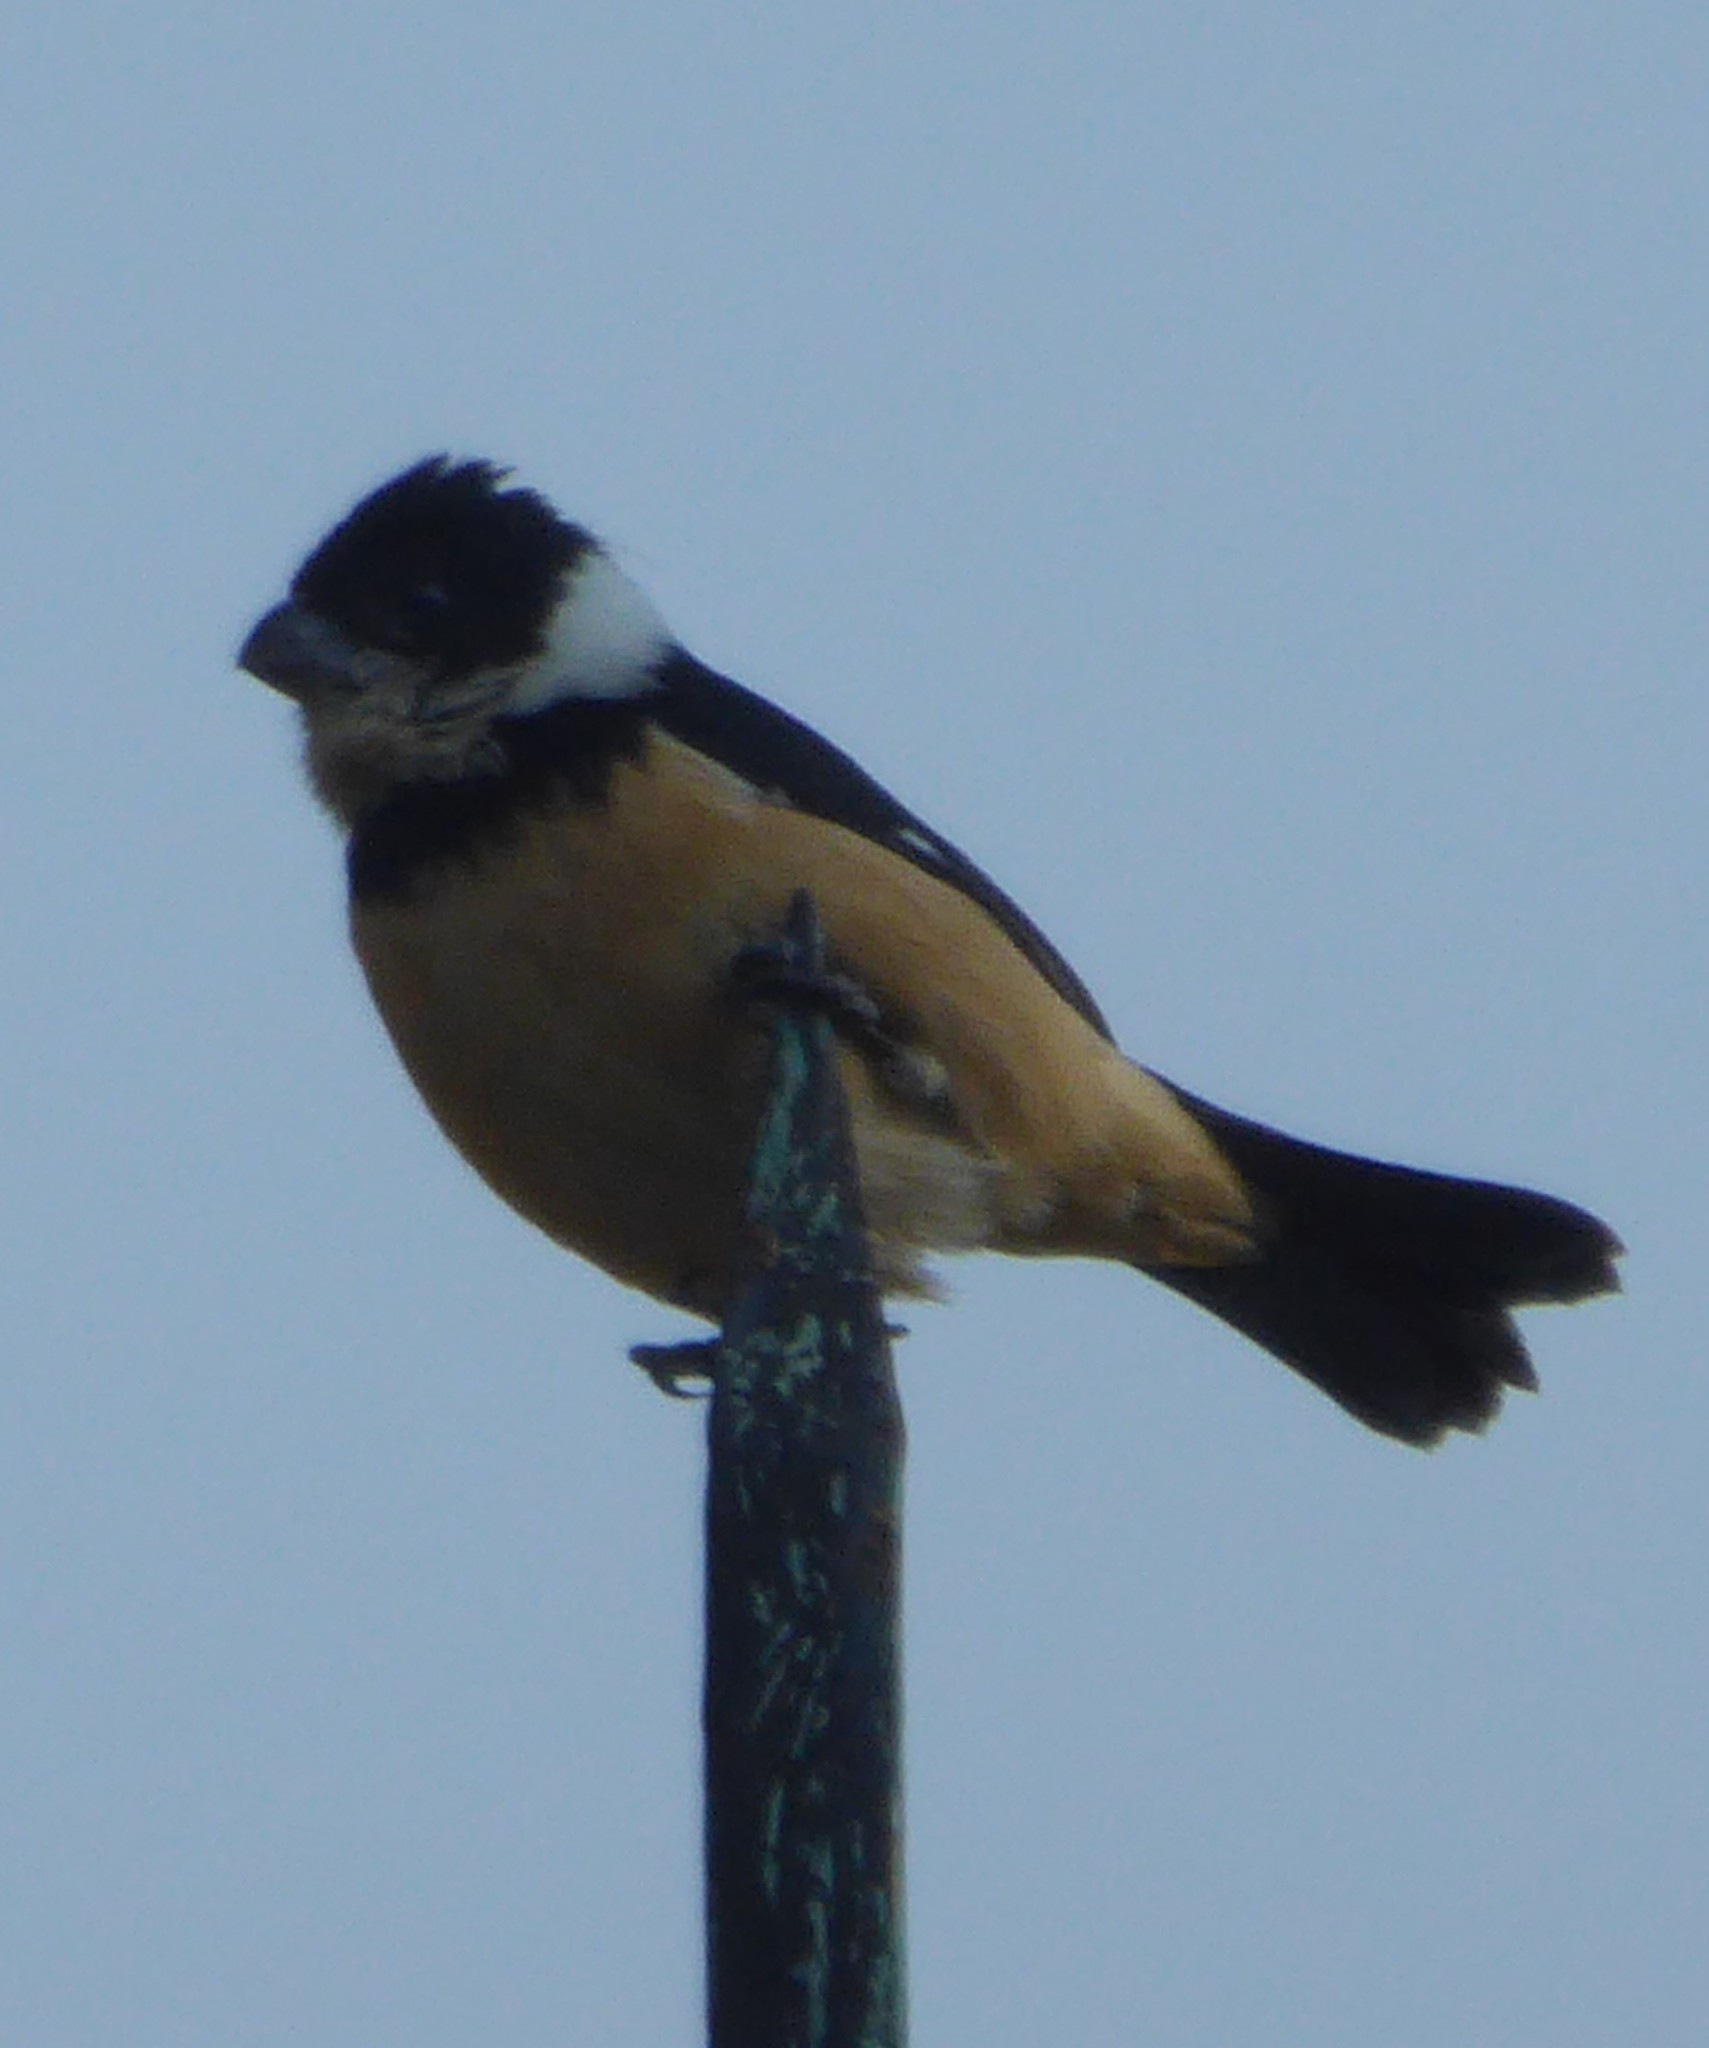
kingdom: Animalia
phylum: Chordata
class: Aves
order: Passeriformes
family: Thraupidae
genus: Sporophila
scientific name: Sporophila torqueola
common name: White-collared seedeater
